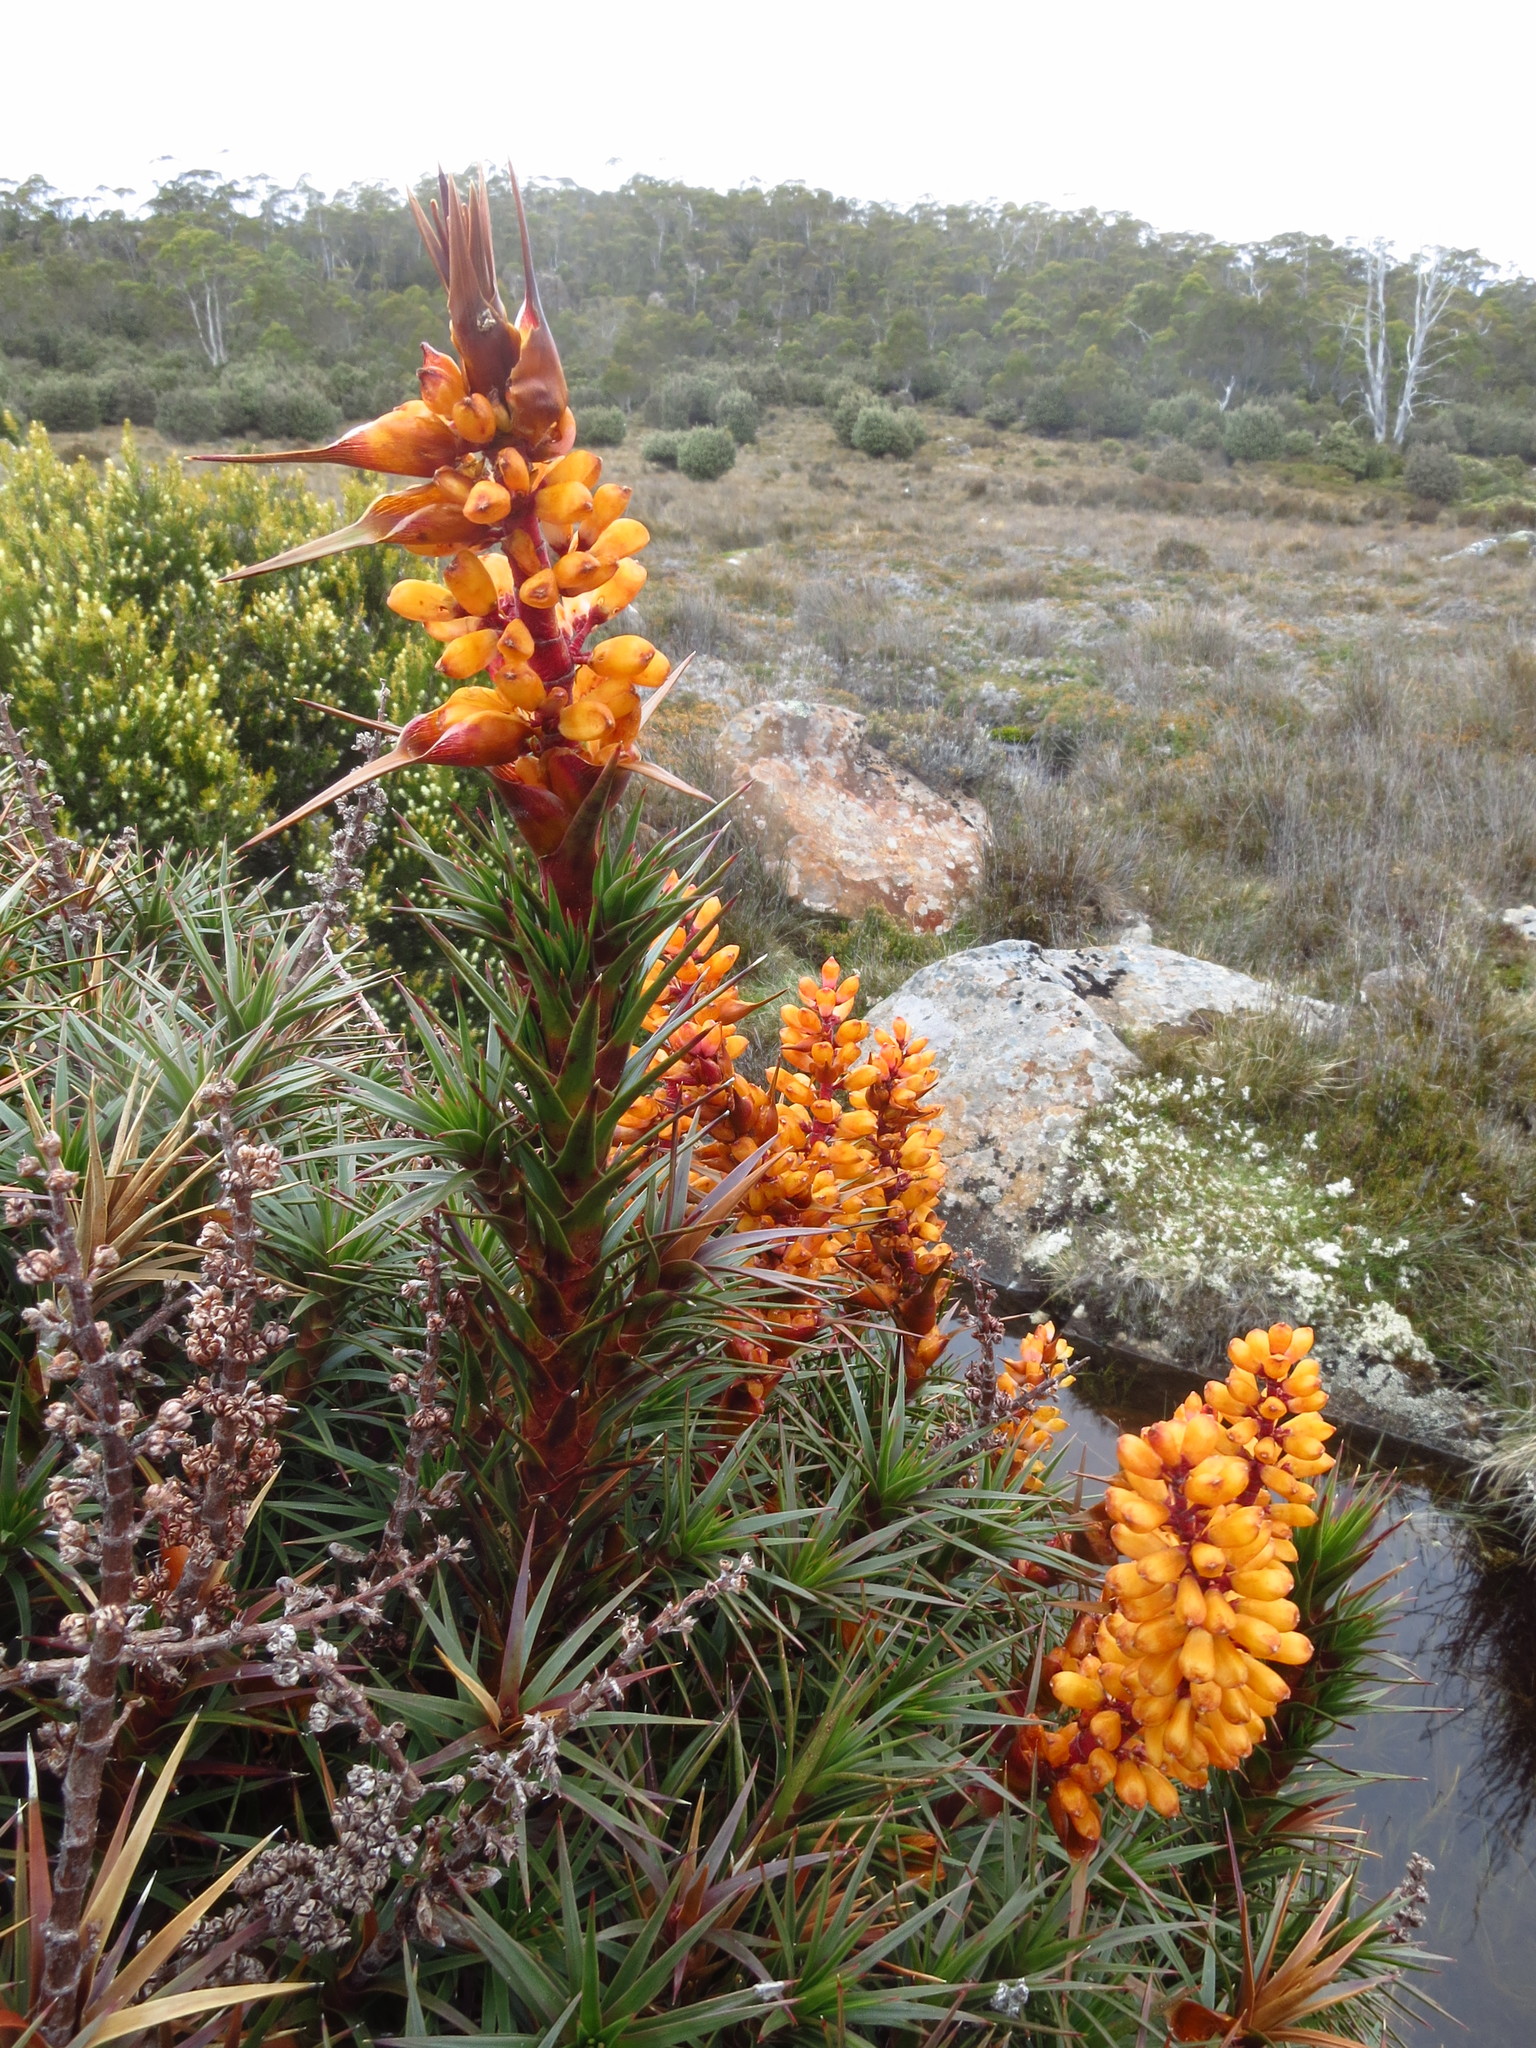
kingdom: Plantae
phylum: Tracheophyta
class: Magnoliopsida
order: Ericales
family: Ericaceae
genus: Dracophyllum
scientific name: Dracophyllum persistentifolium
